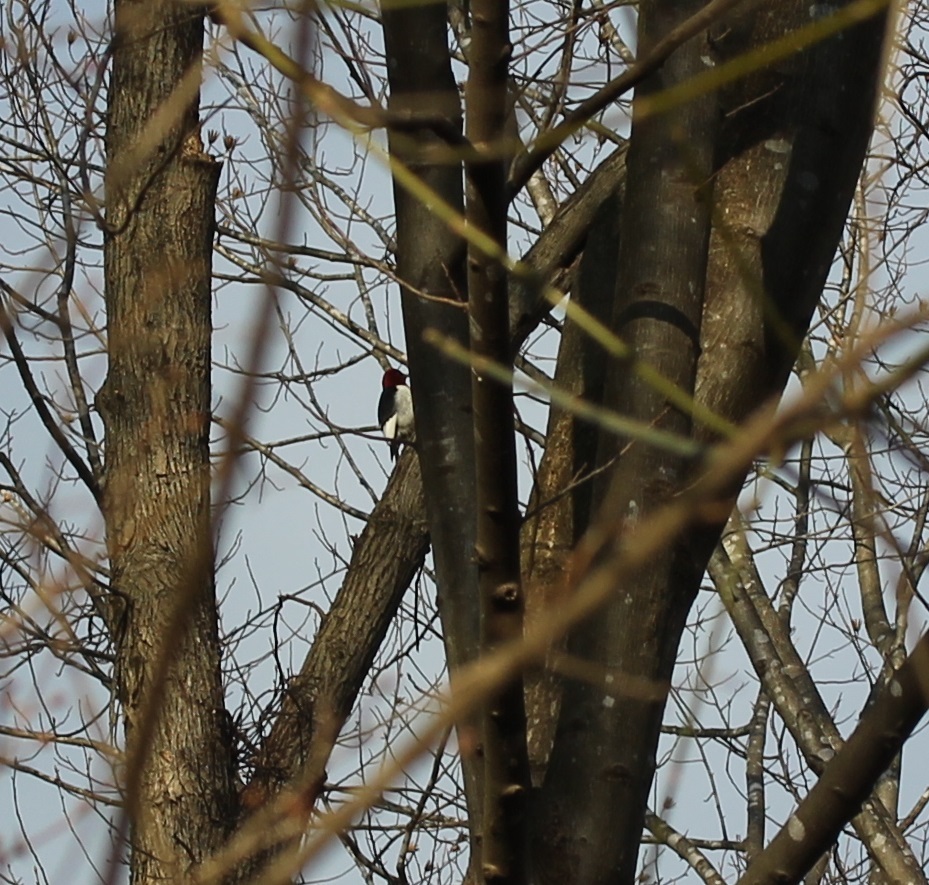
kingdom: Animalia
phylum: Chordata
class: Aves
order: Piciformes
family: Picidae
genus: Melanerpes
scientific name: Melanerpes erythrocephalus
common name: Red-headed woodpecker
